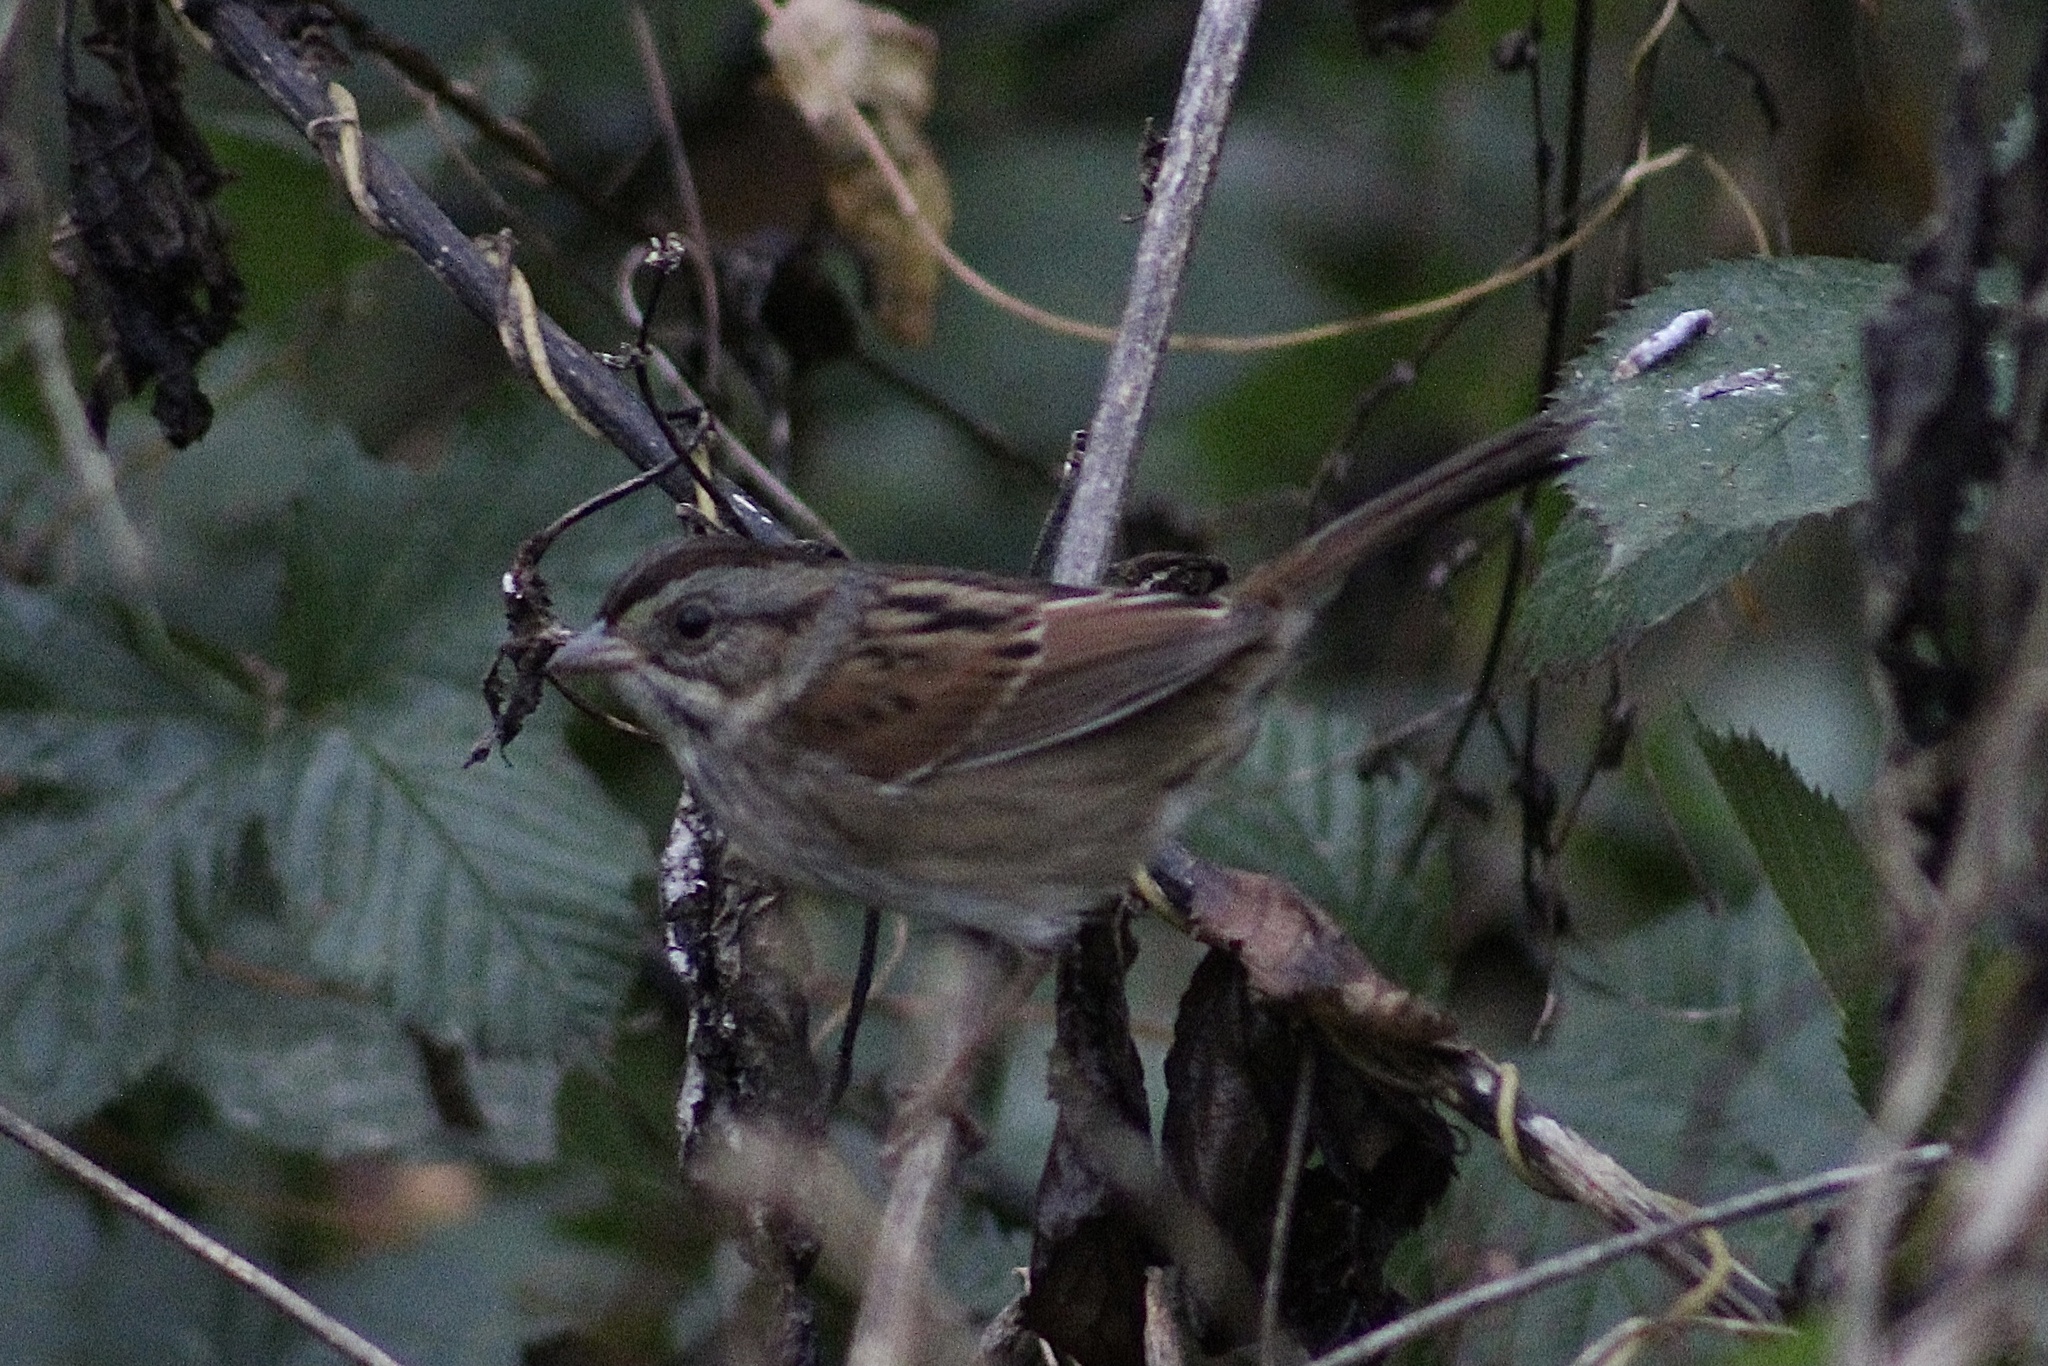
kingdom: Animalia
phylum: Chordata
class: Aves
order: Passeriformes
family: Passerellidae
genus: Melospiza
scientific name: Melospiza georgiana
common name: Swamp sparrow
